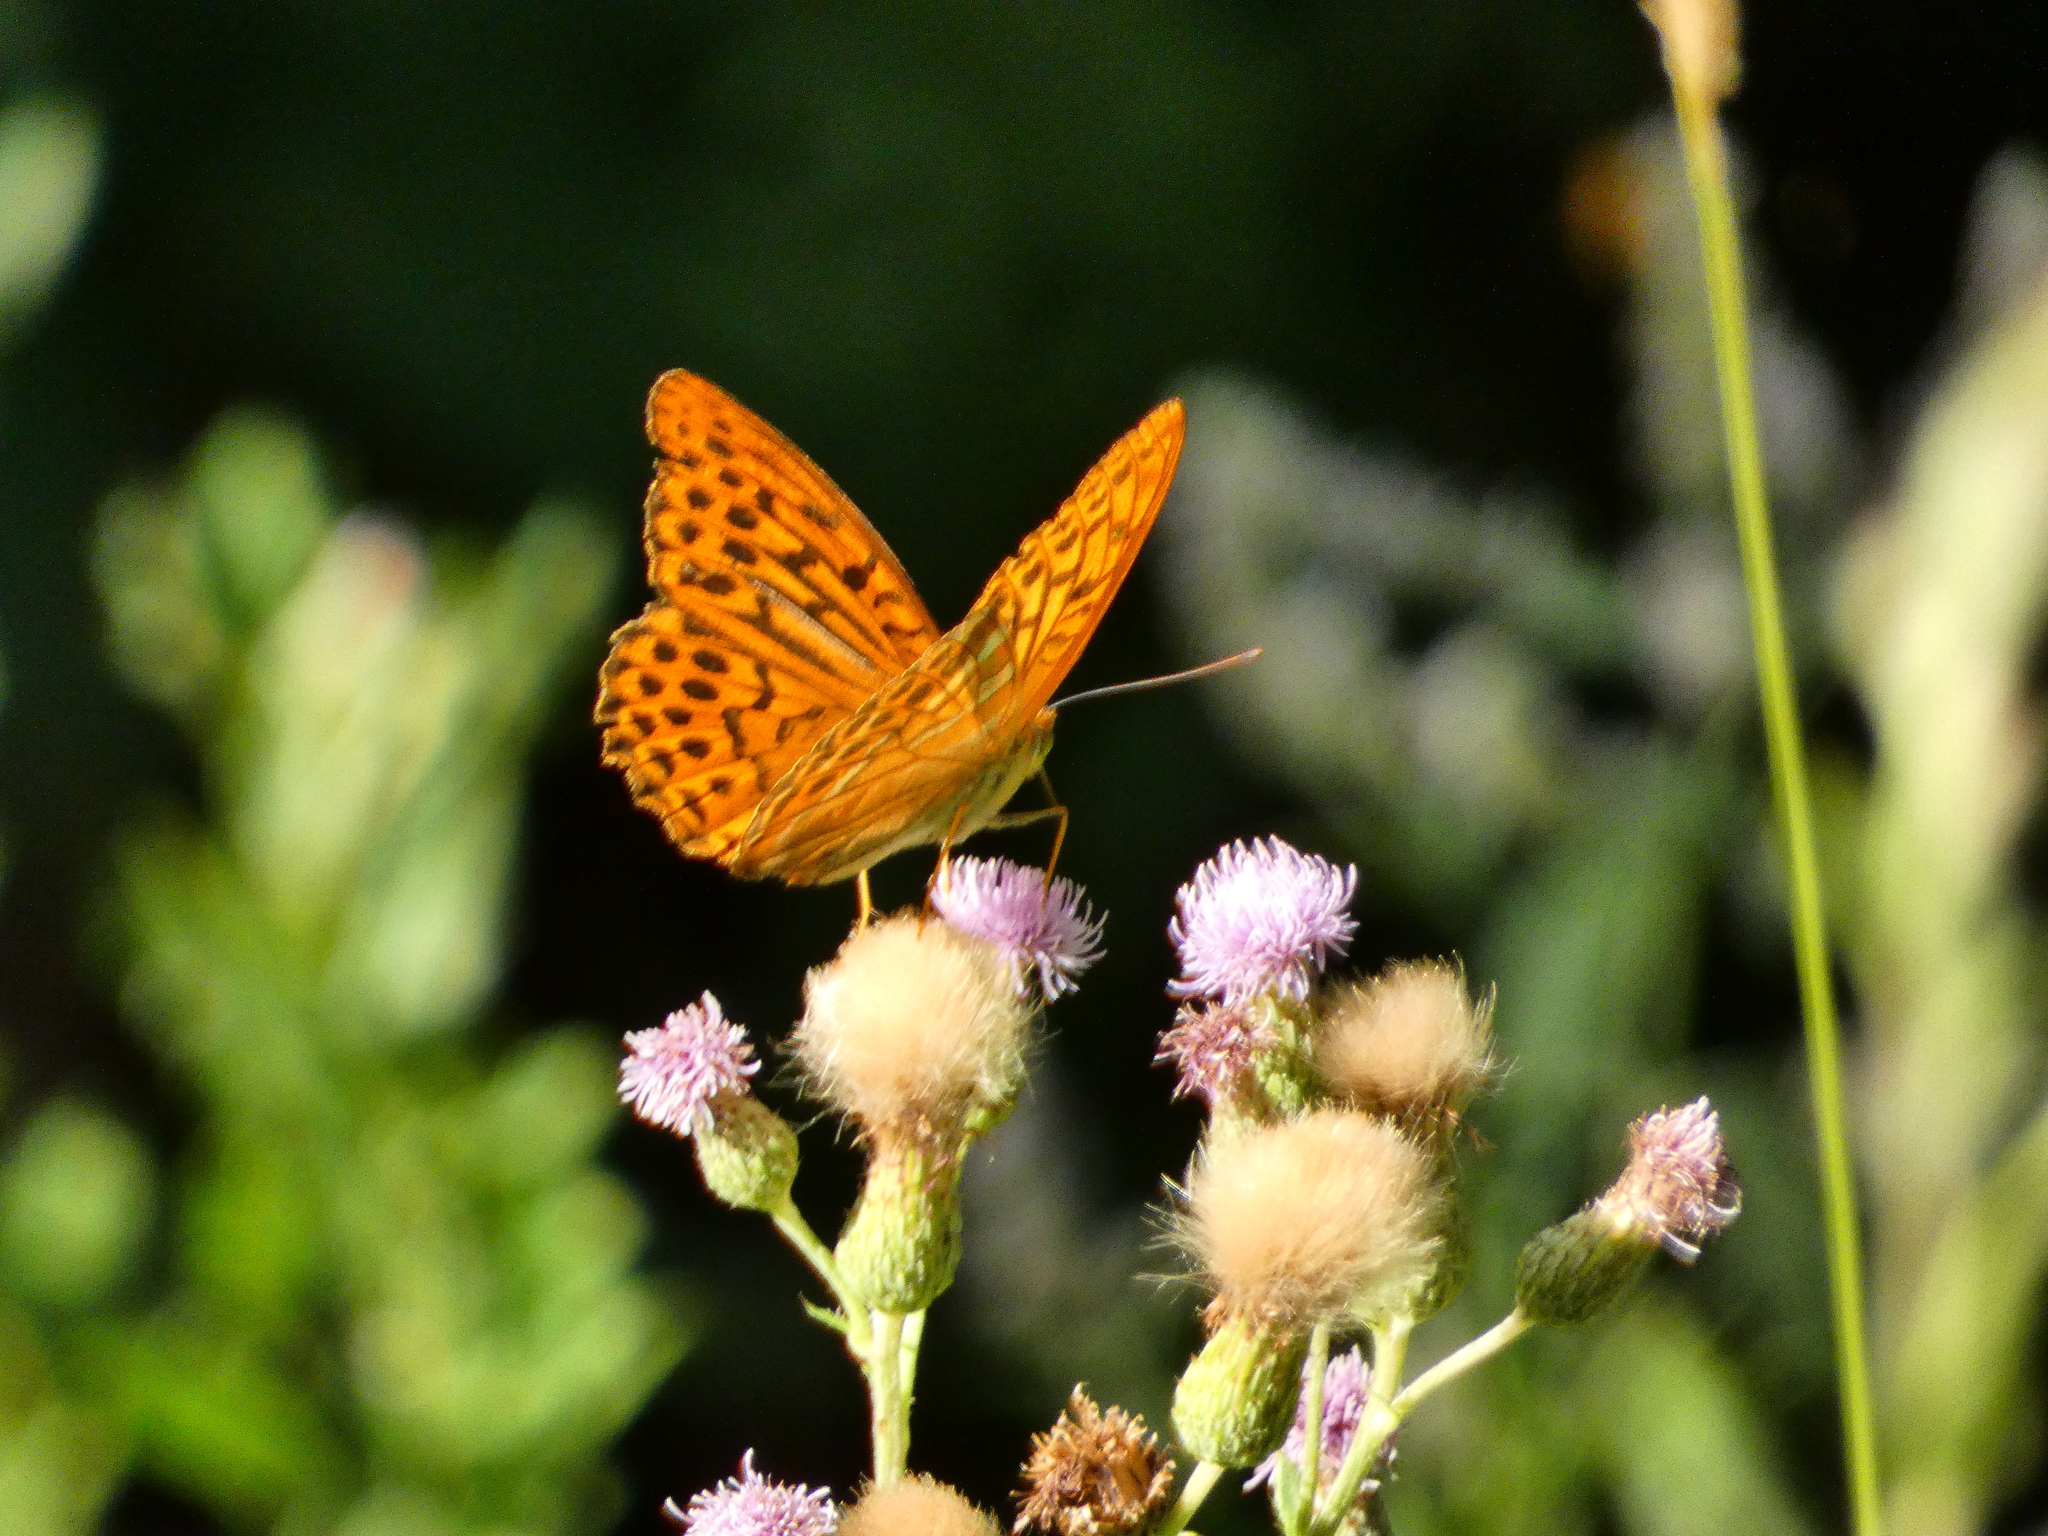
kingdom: Animalia
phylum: Arthropoda
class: Insecta
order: Lepidoptera
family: Nymphalidae
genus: Argynnis
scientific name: Argynnis paphia
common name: Silver-washed fritillary
